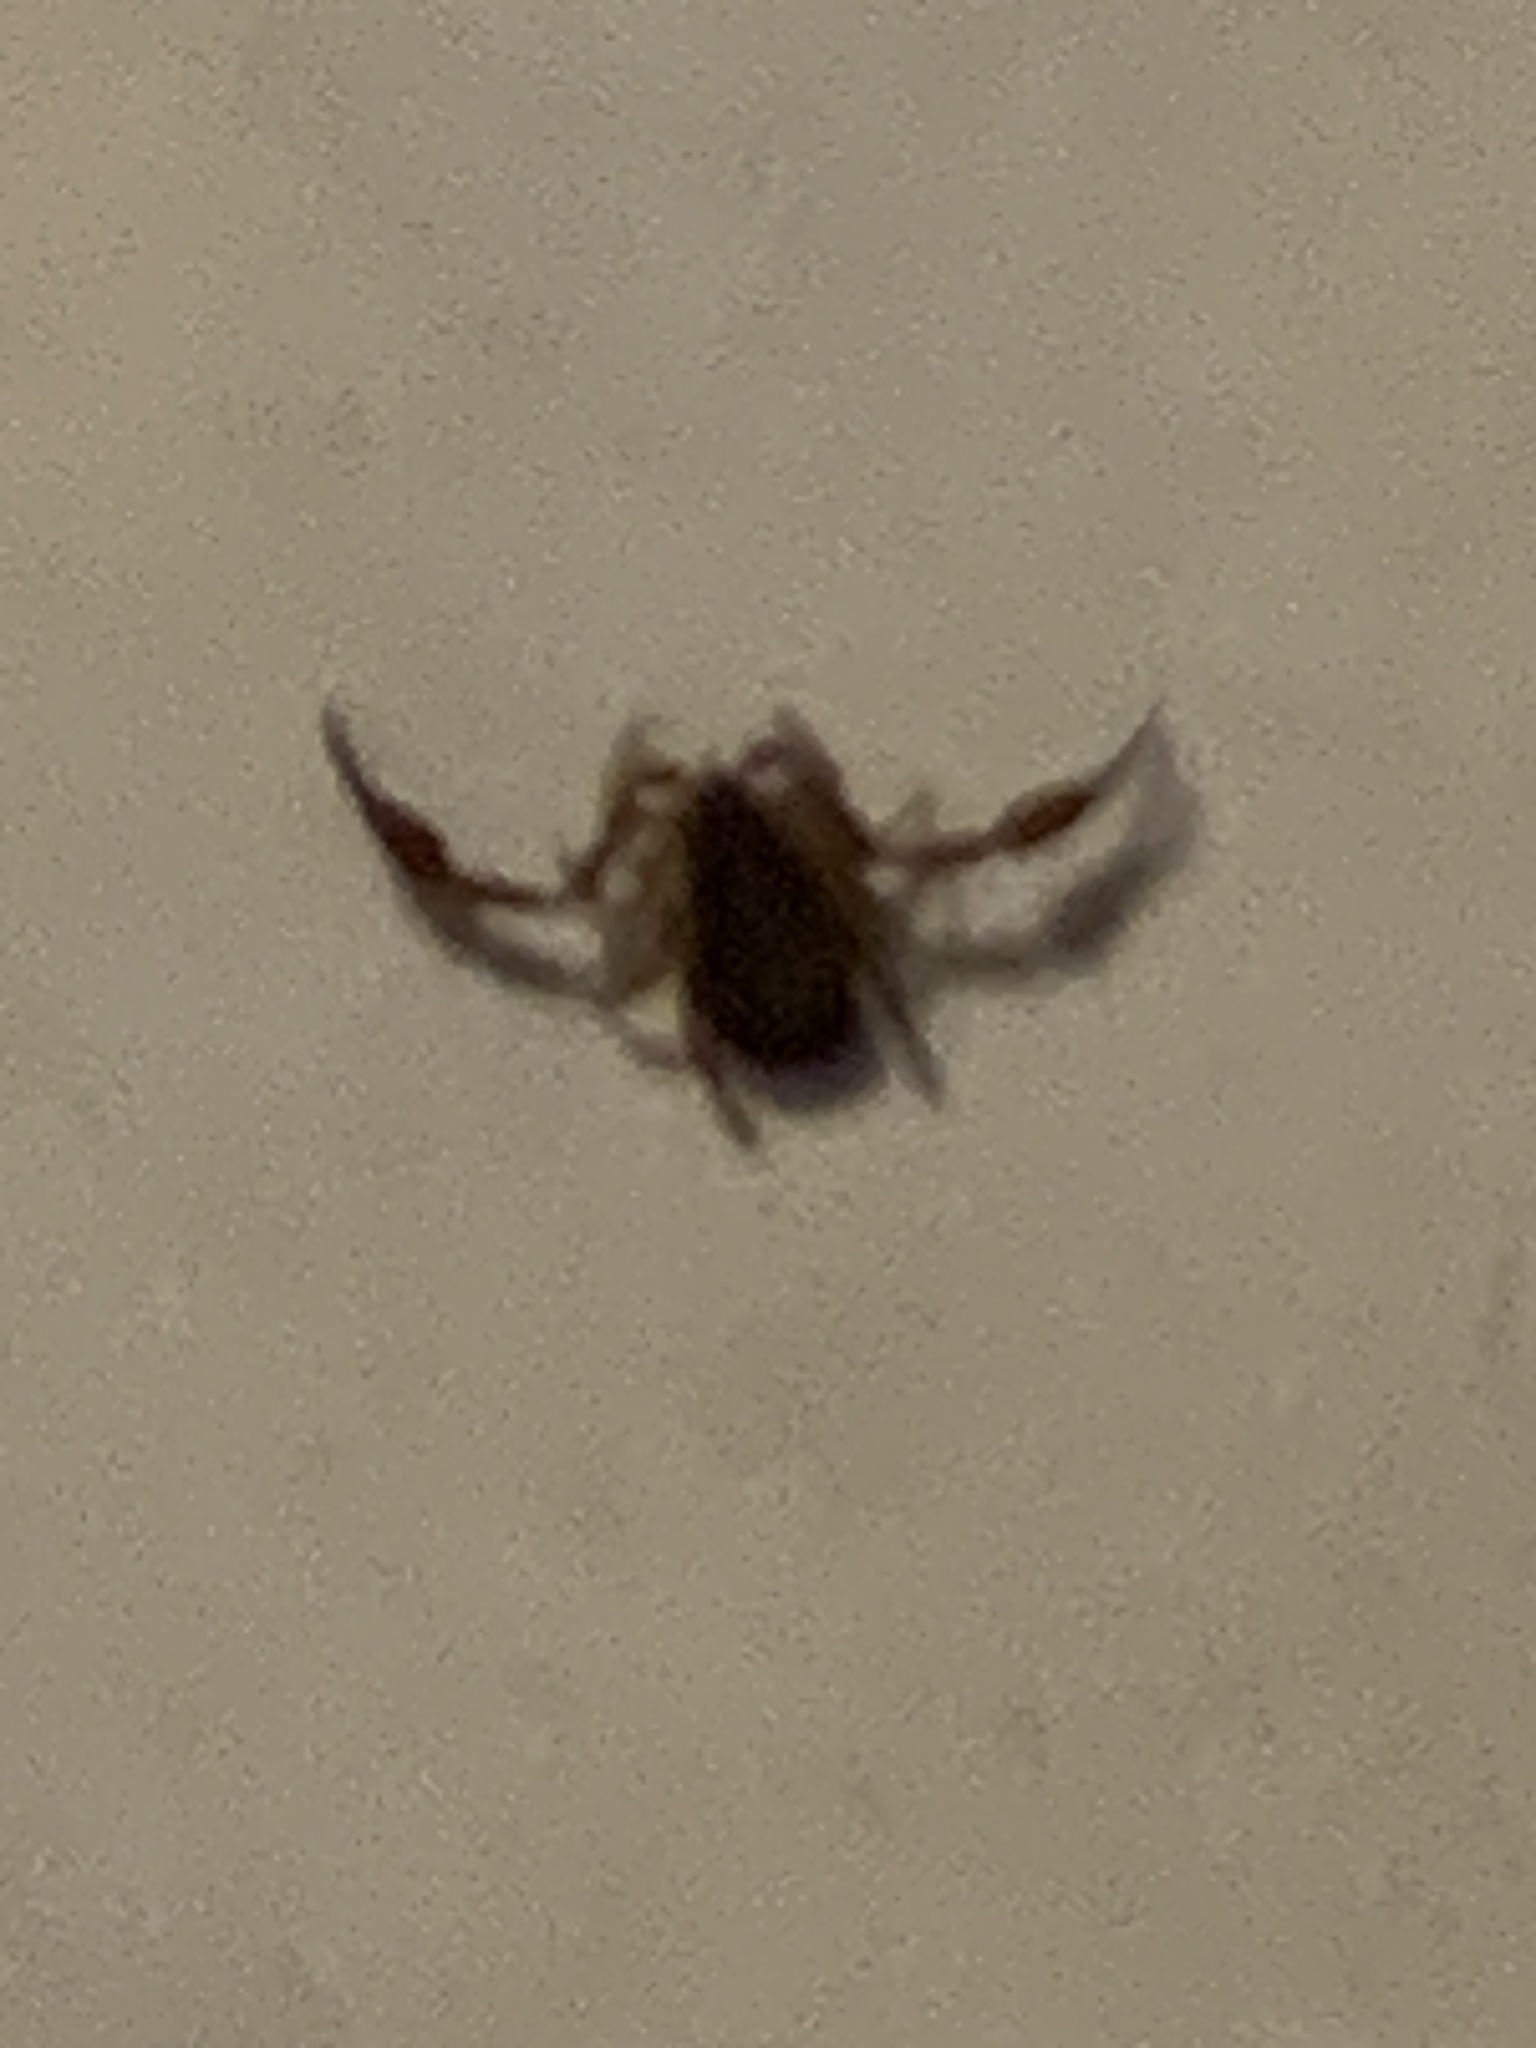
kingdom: Animalia
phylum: Arthropoda
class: Arachnida
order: Pseudoscorpiones
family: Cheliferidae
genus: Chelifer
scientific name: Chelifer cancroides
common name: House false-scorpion
